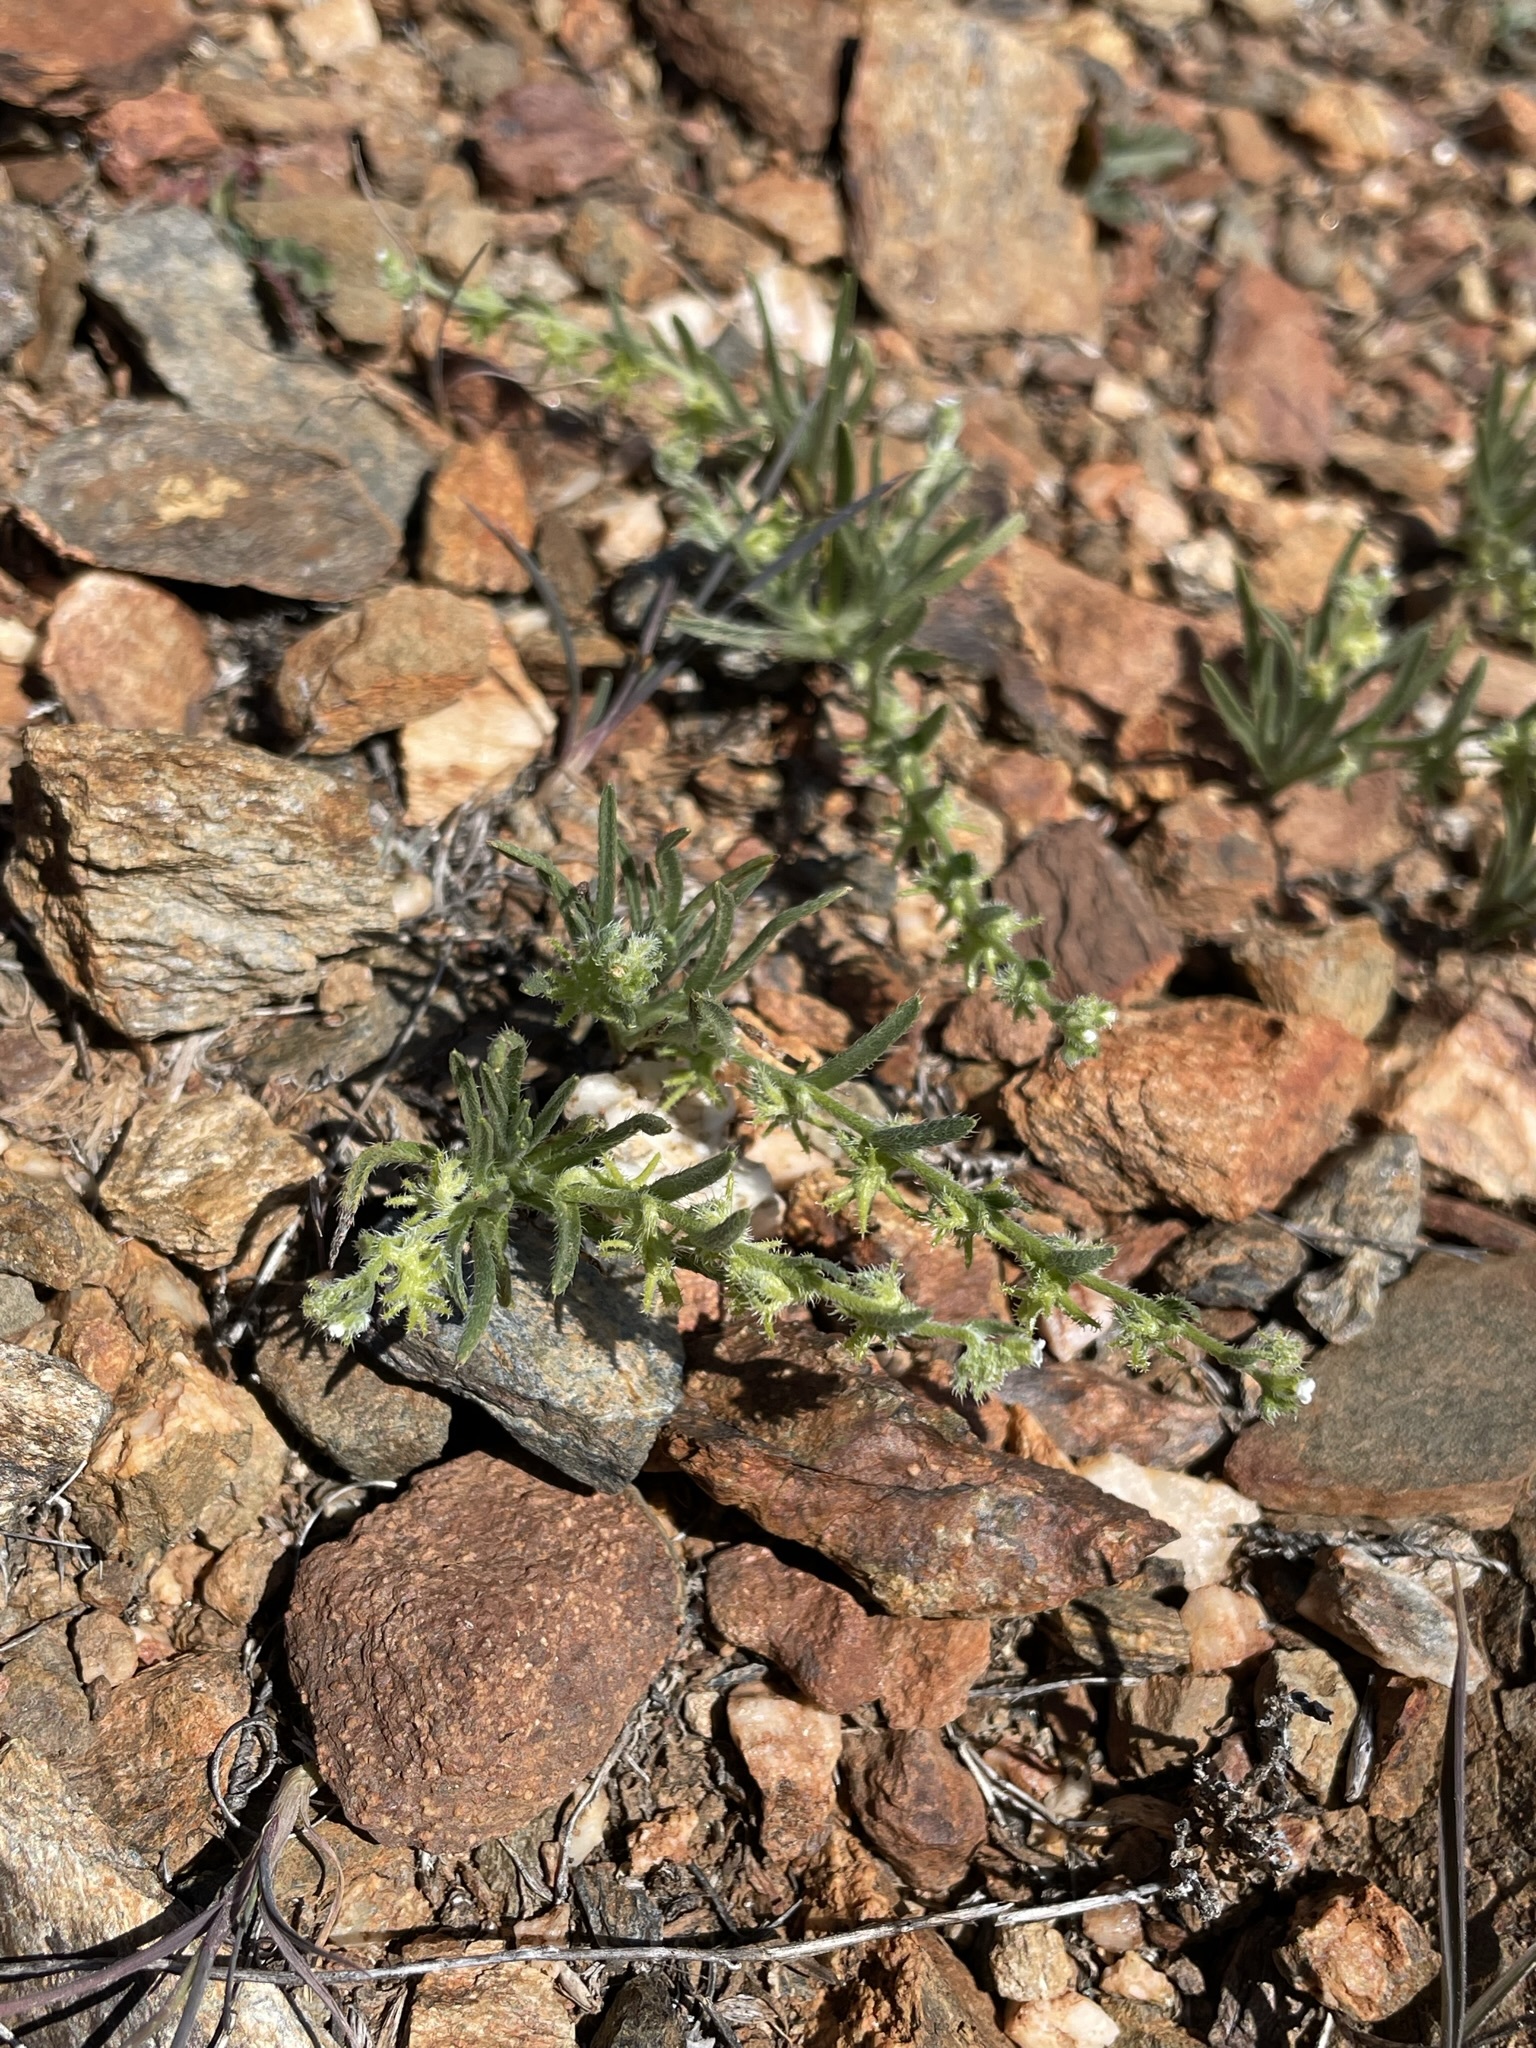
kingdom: Plantae
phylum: Tracheophyta
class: Magnoliopsida
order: Boraginales
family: Boraginaceae
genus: Harpagonella
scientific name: Harpagonella palmeri
